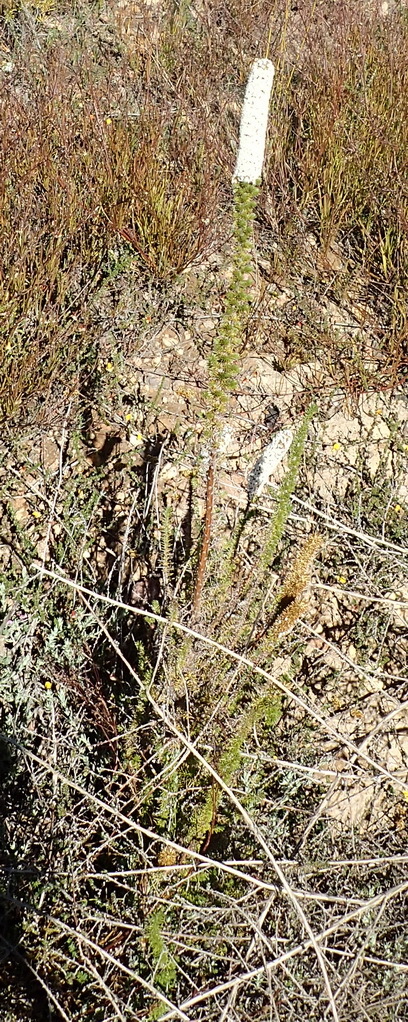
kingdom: Plantae
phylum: Tracheophyta
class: Magnoliopsida
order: Asterales
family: Asteraceae
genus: Stoebe
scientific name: Stoebe alopecuroides
